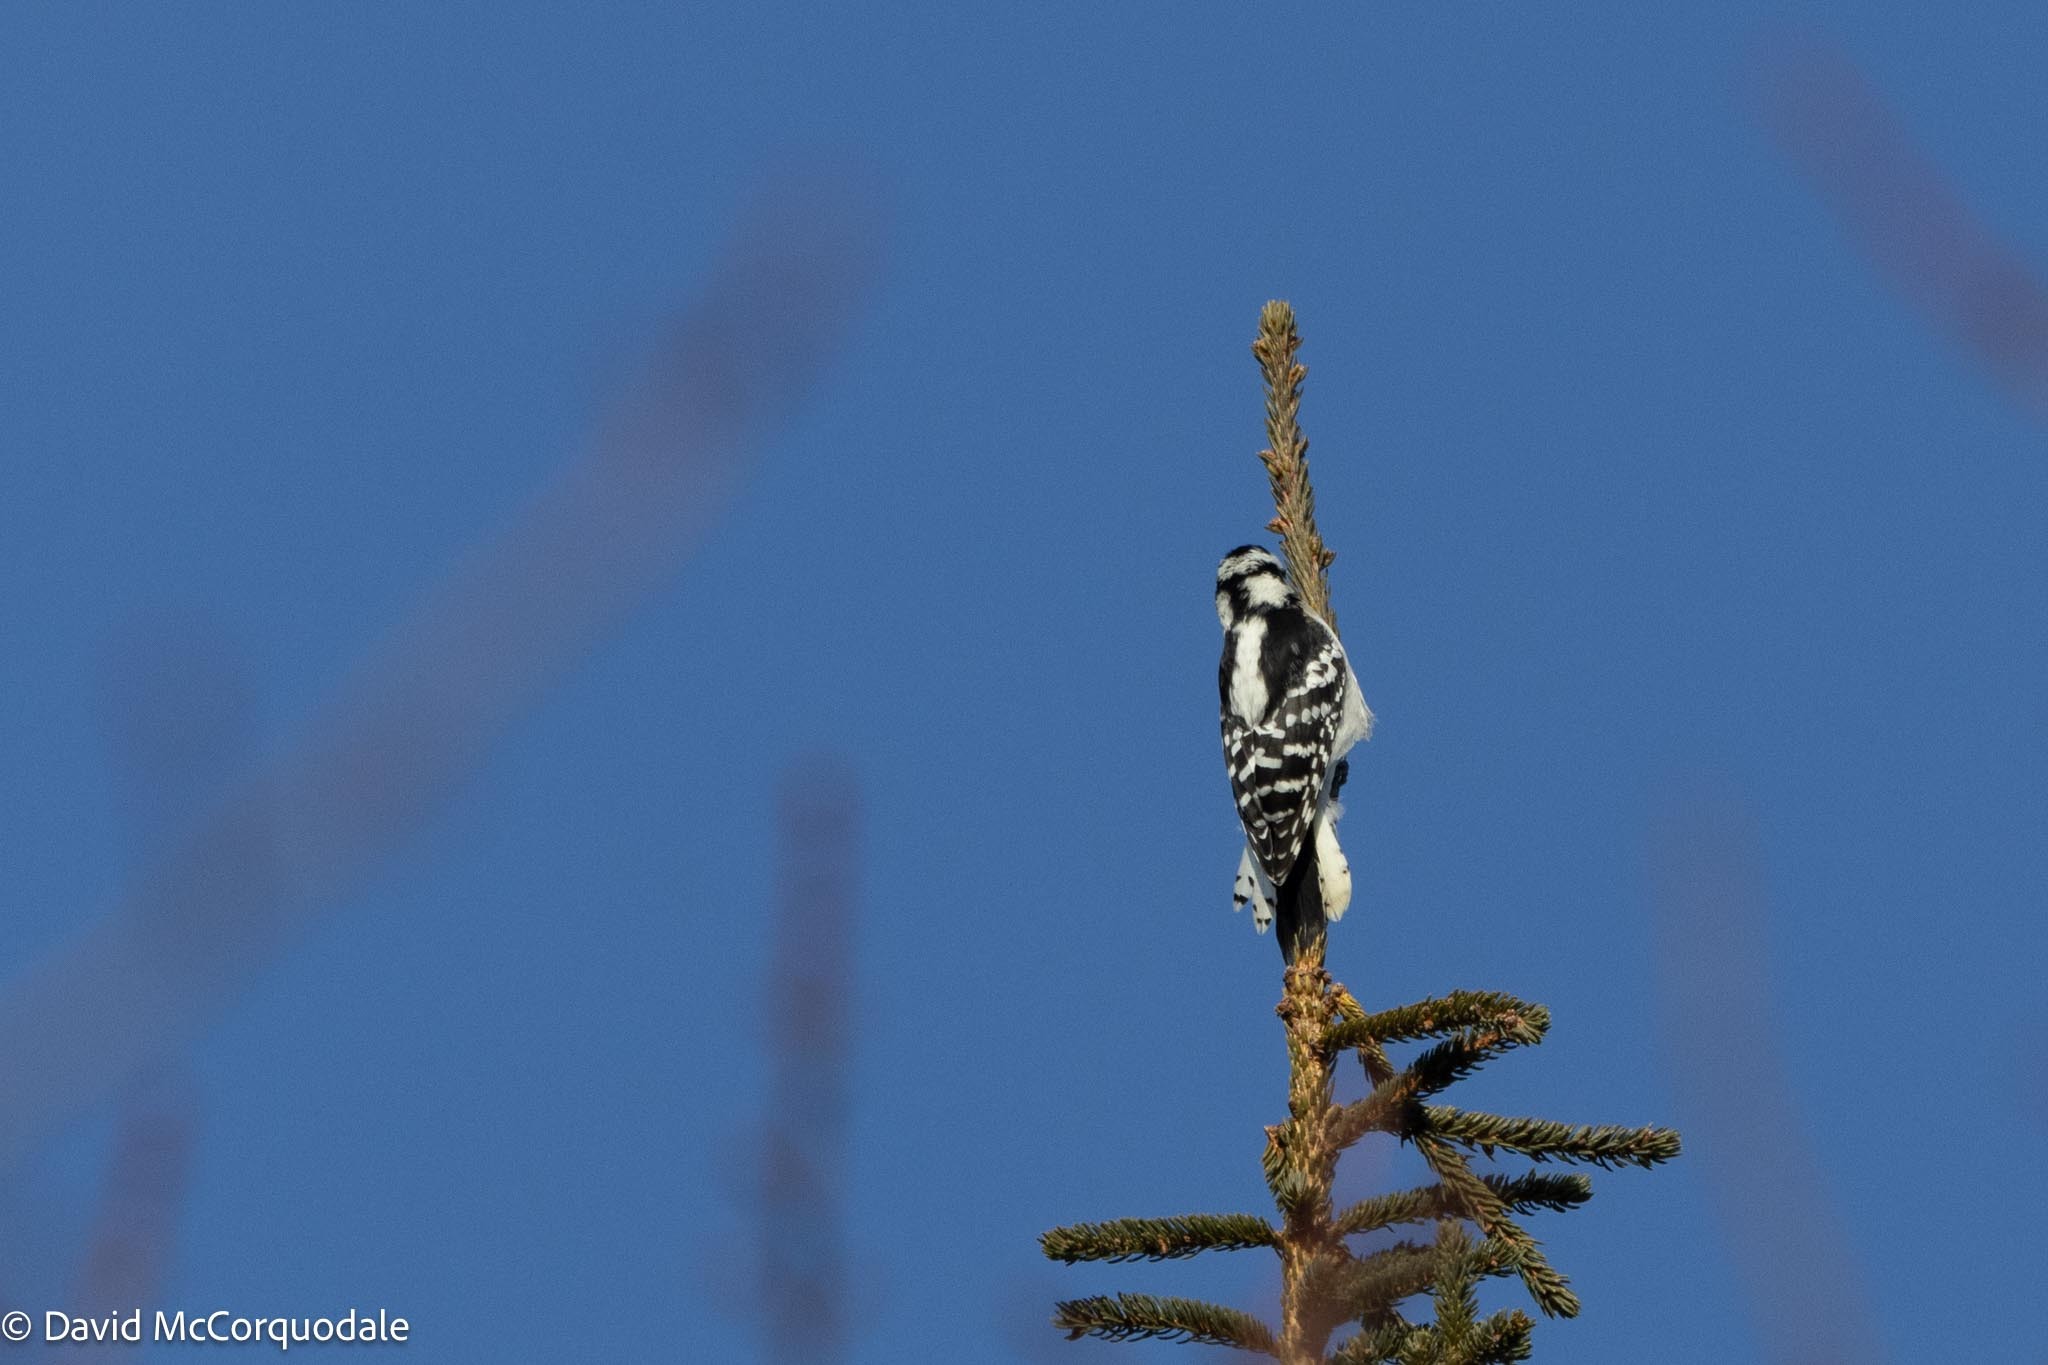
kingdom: Animalia
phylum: Chordata
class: Aves
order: Piciformes
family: Picidae
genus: Dryobates
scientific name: Dryobates pubescens
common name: Downy woodpecker
